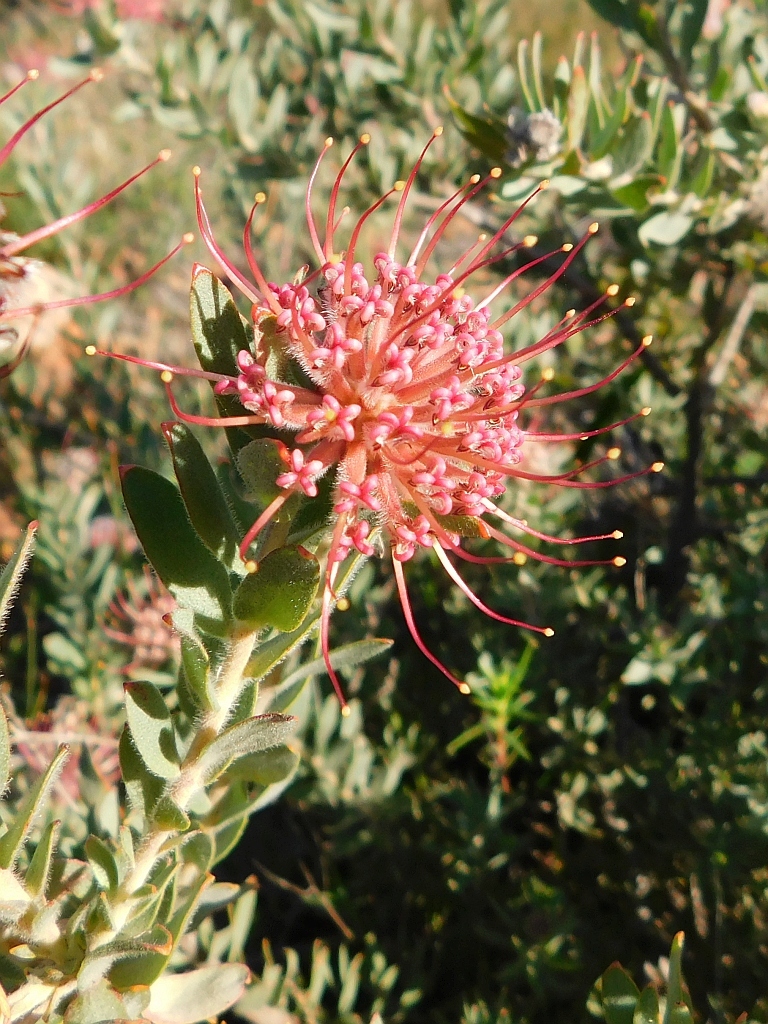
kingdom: Plantae
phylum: Tracheophyta
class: Magnoliopsida
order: Proteales
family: Proteaceae
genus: Leucospermum
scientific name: Leucospermum calligerum
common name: Arid pincushion
